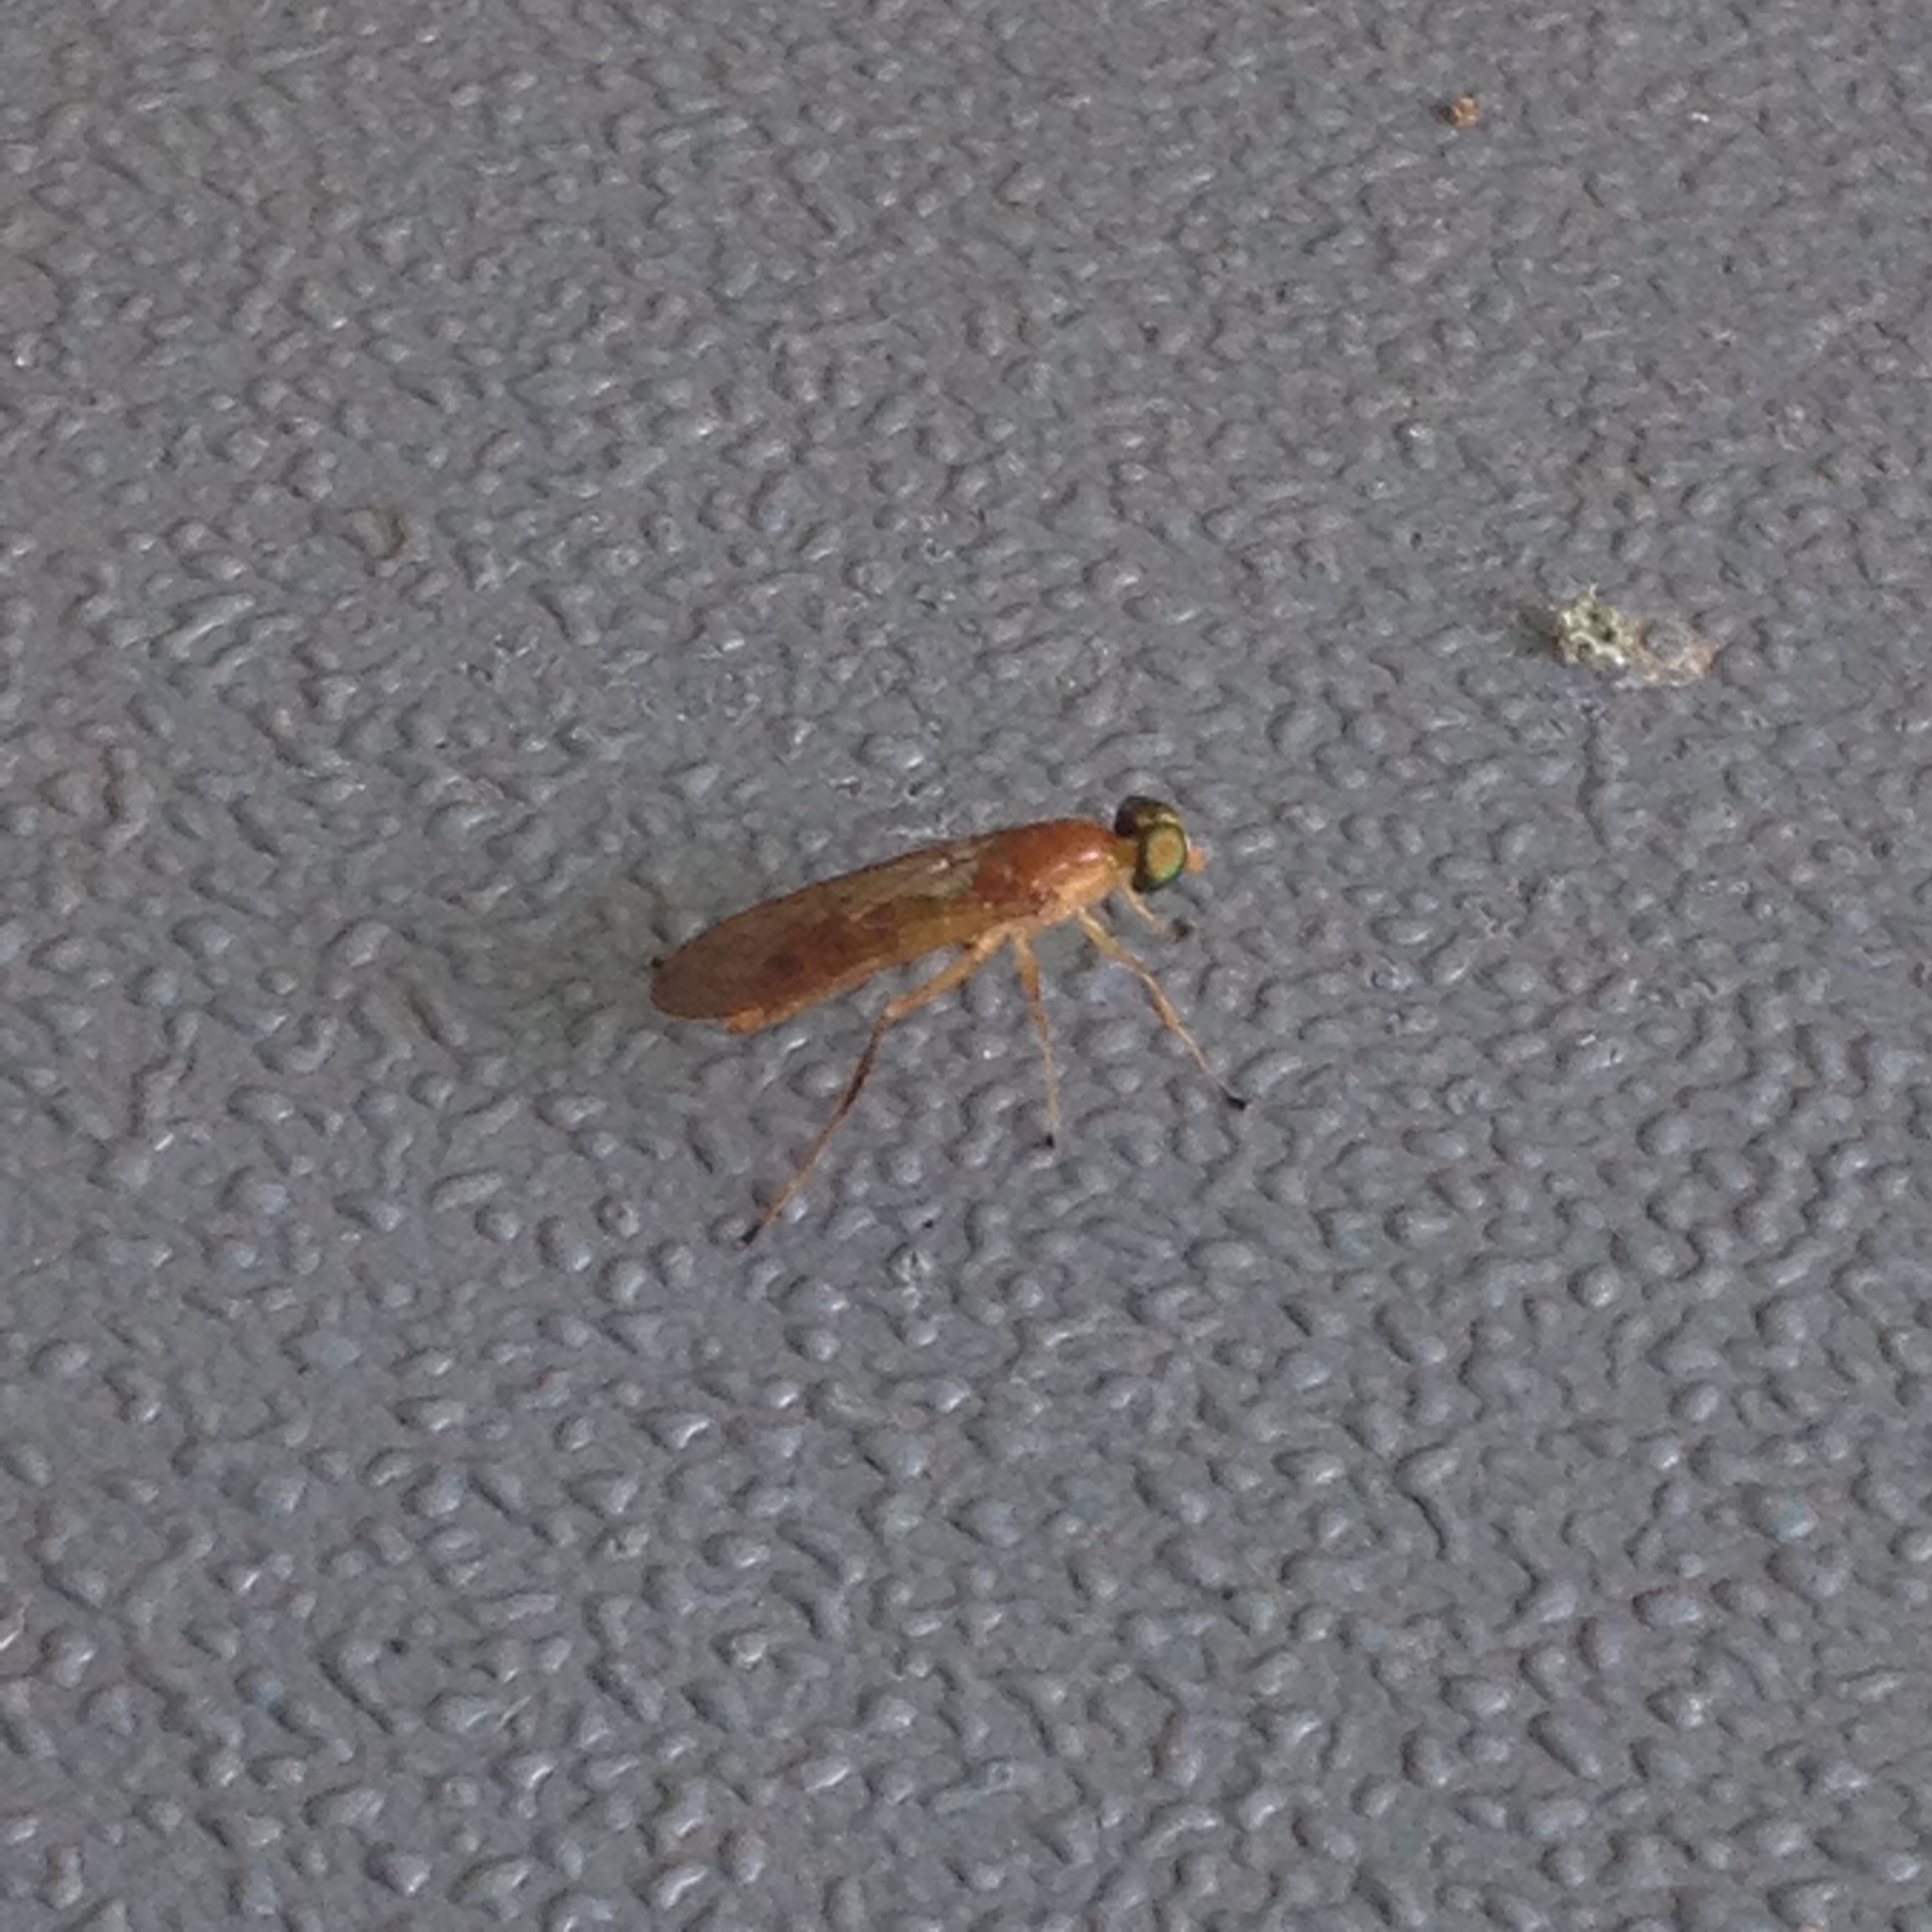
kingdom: Animalia
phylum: Arthropoda
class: Insecta
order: Diptera
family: Stratiomyidae
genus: Ptecticus
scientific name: Ptecticus trivittatus
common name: Compost fly
